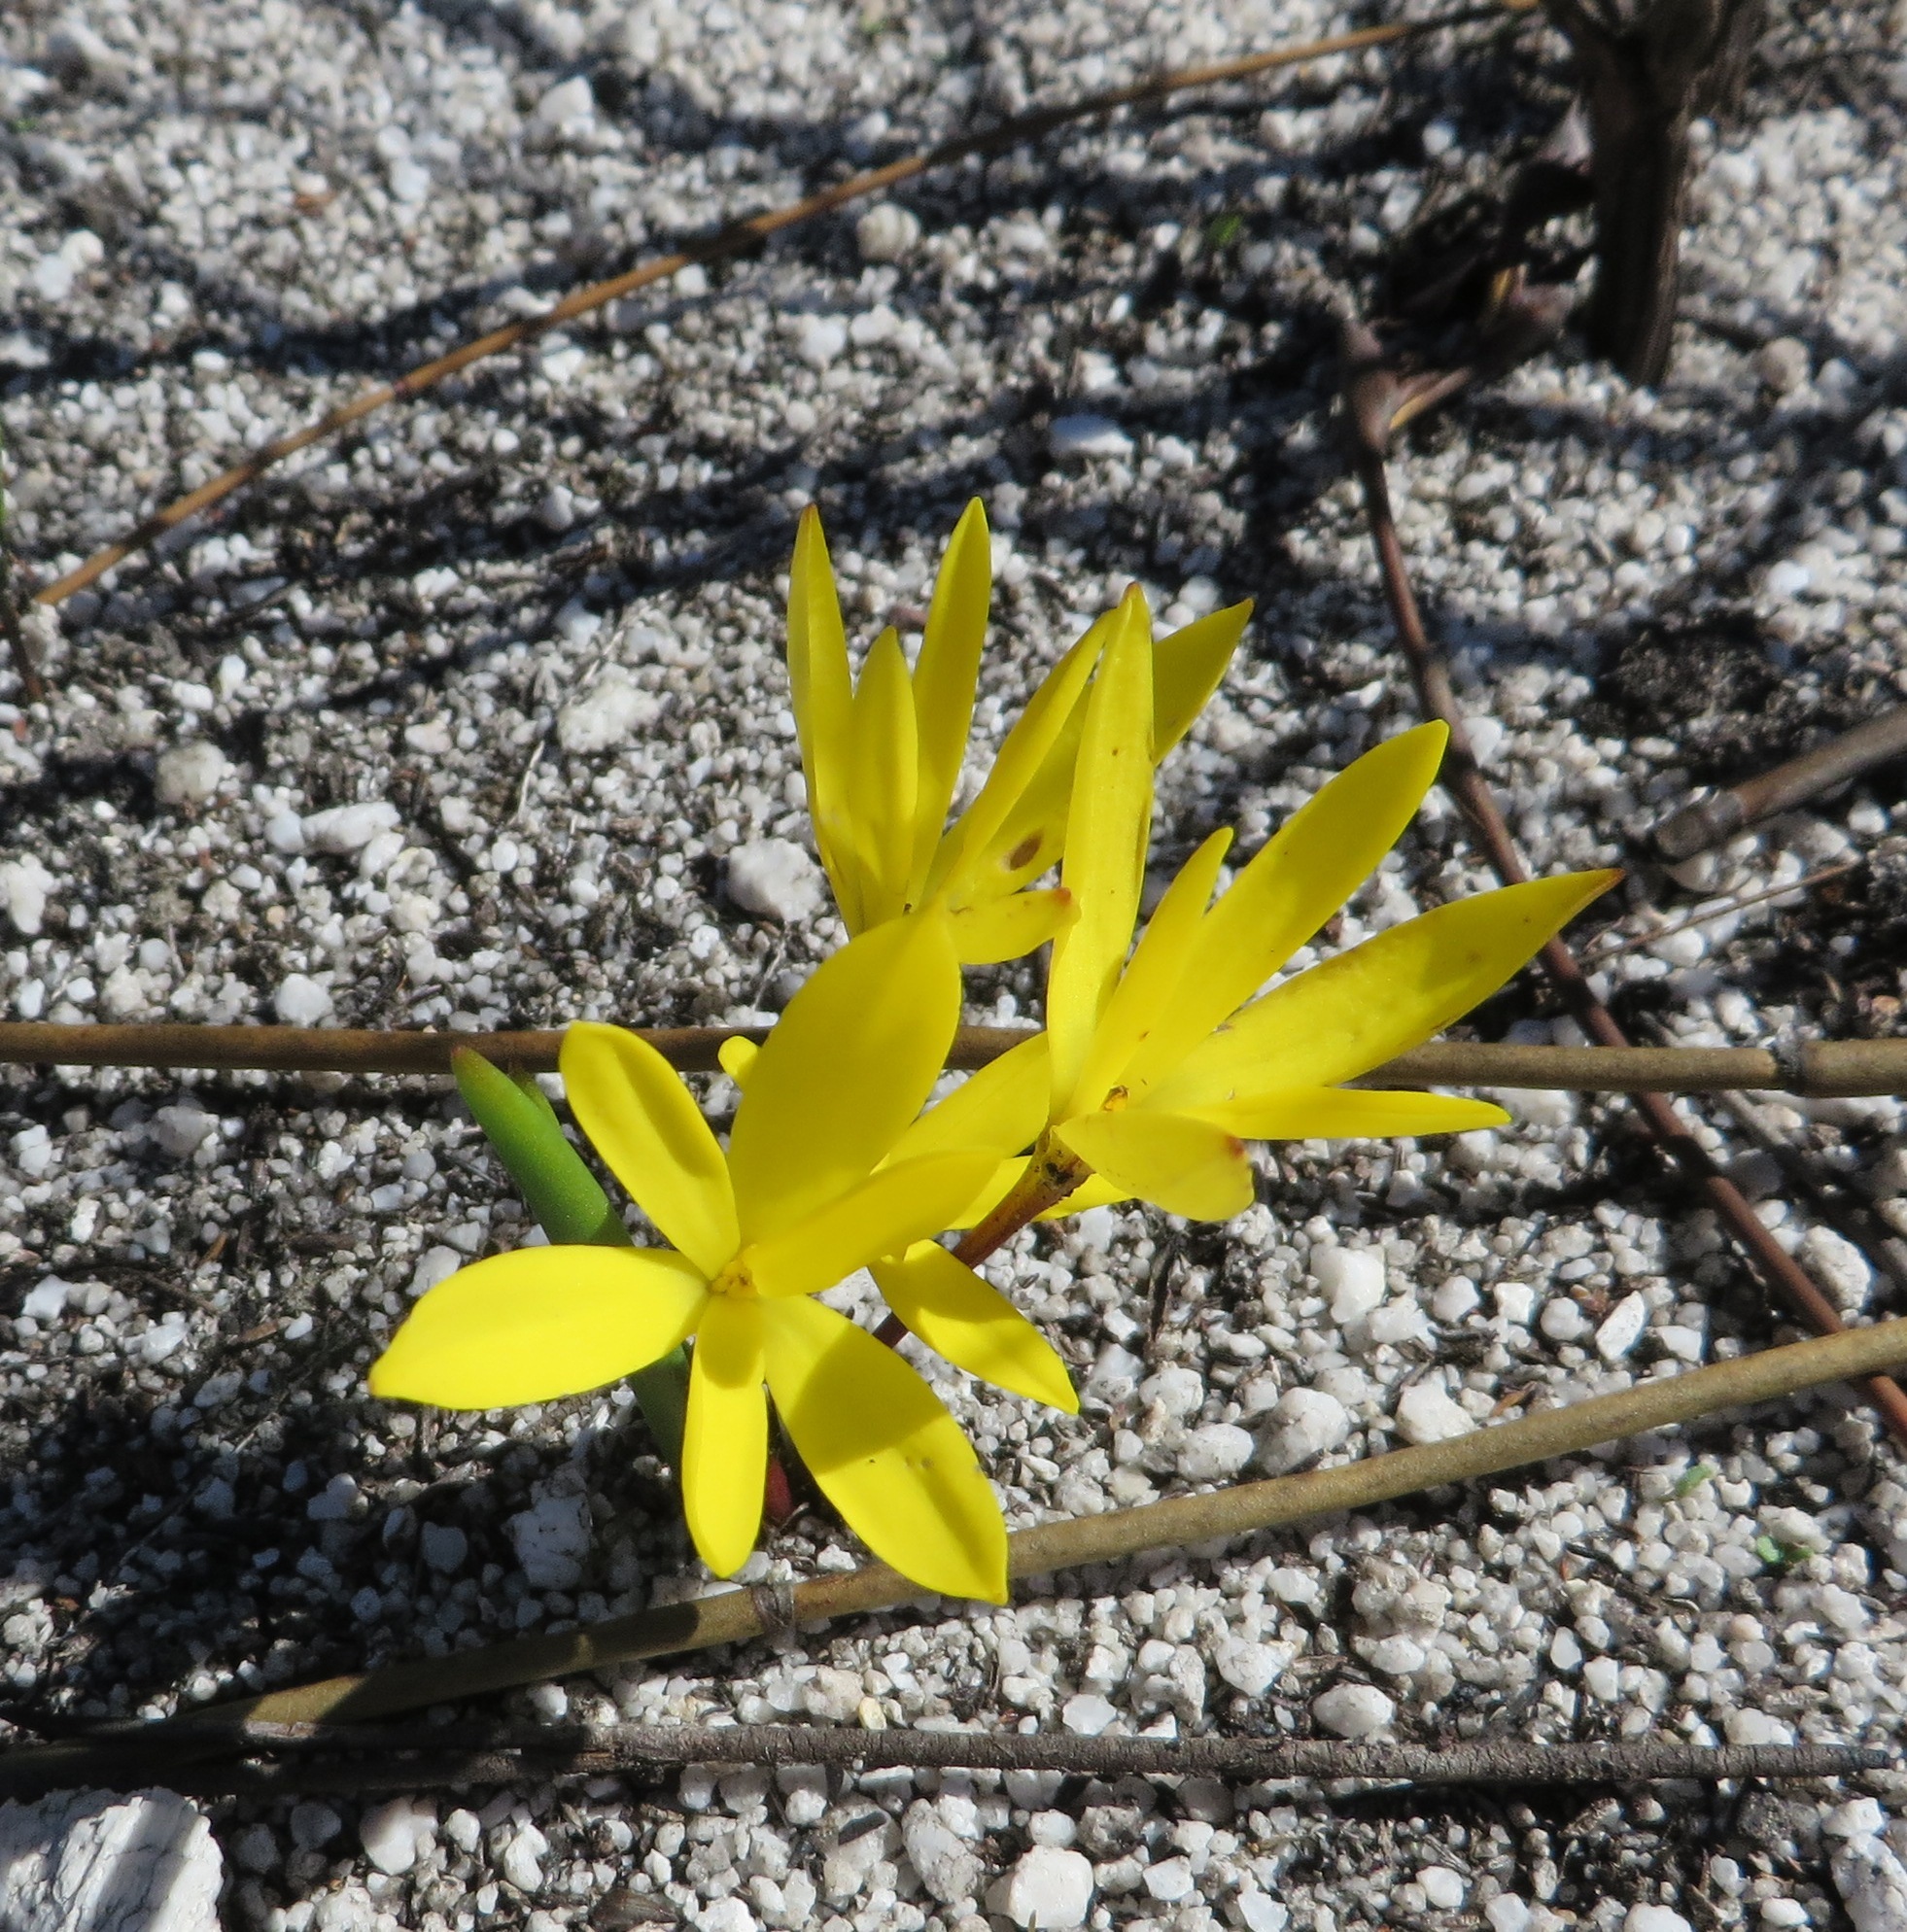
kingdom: Plantae
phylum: Tracheophyta
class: Liliopsida
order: Asparagales
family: Hypoxidaceae
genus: Pauridia
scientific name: Pauridia monophylla
